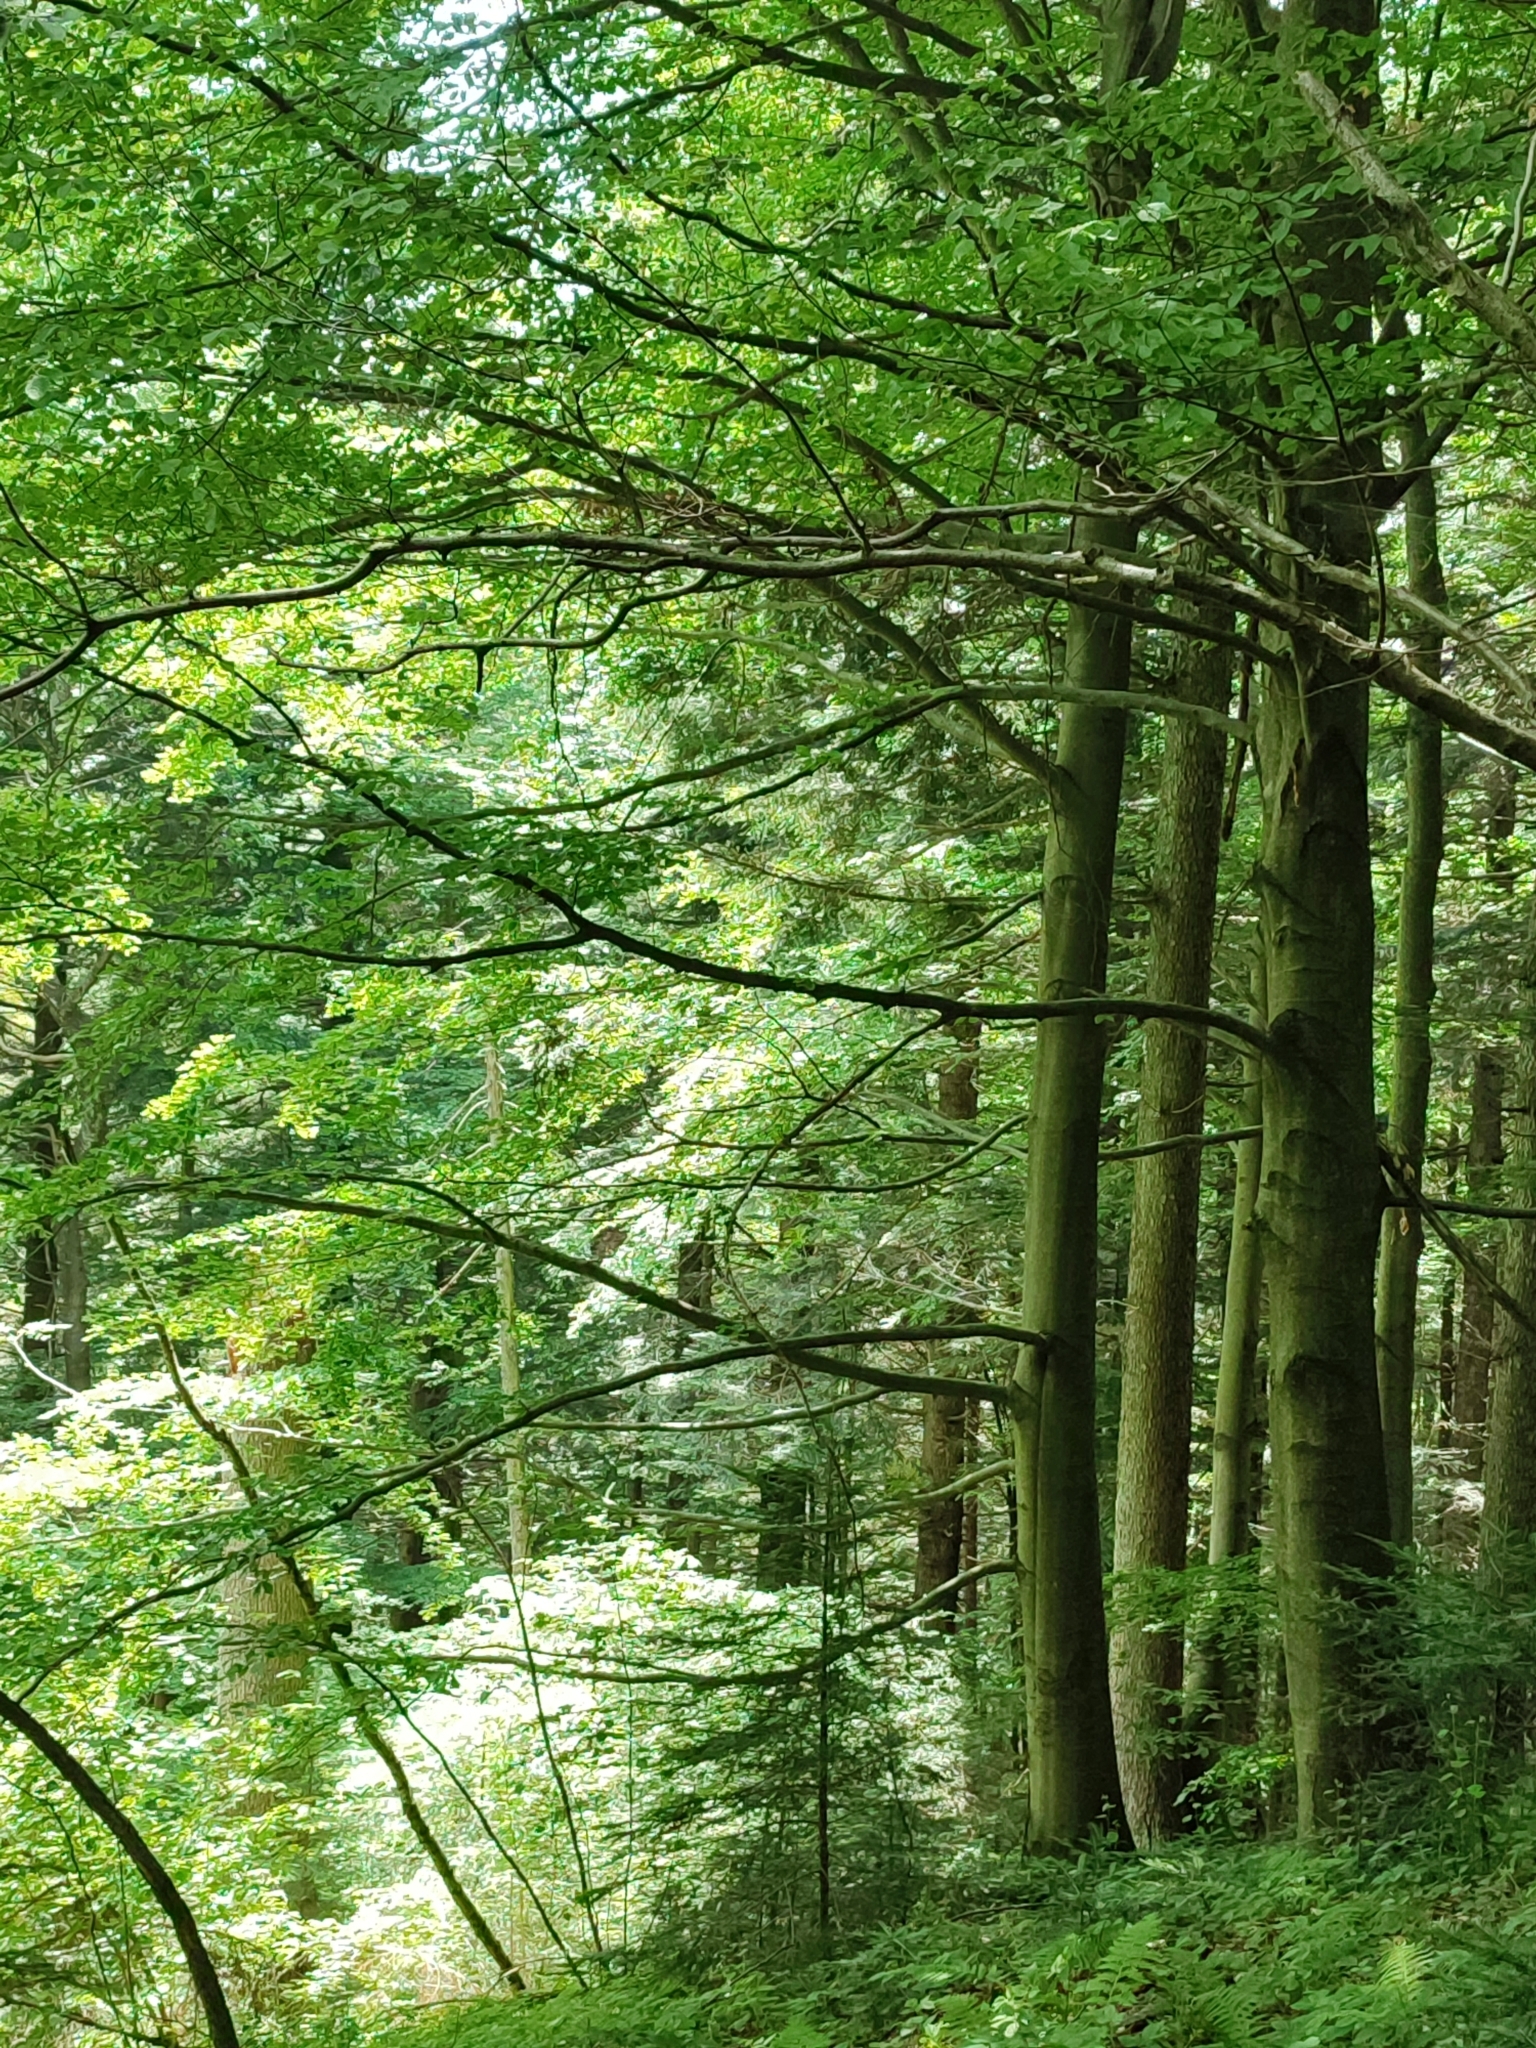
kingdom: Plantae
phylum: Tracheophyta
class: Magnoliopsida
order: Fagales
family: Fagaceae
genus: Fagus
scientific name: Fagus sylvatica
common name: Beech
